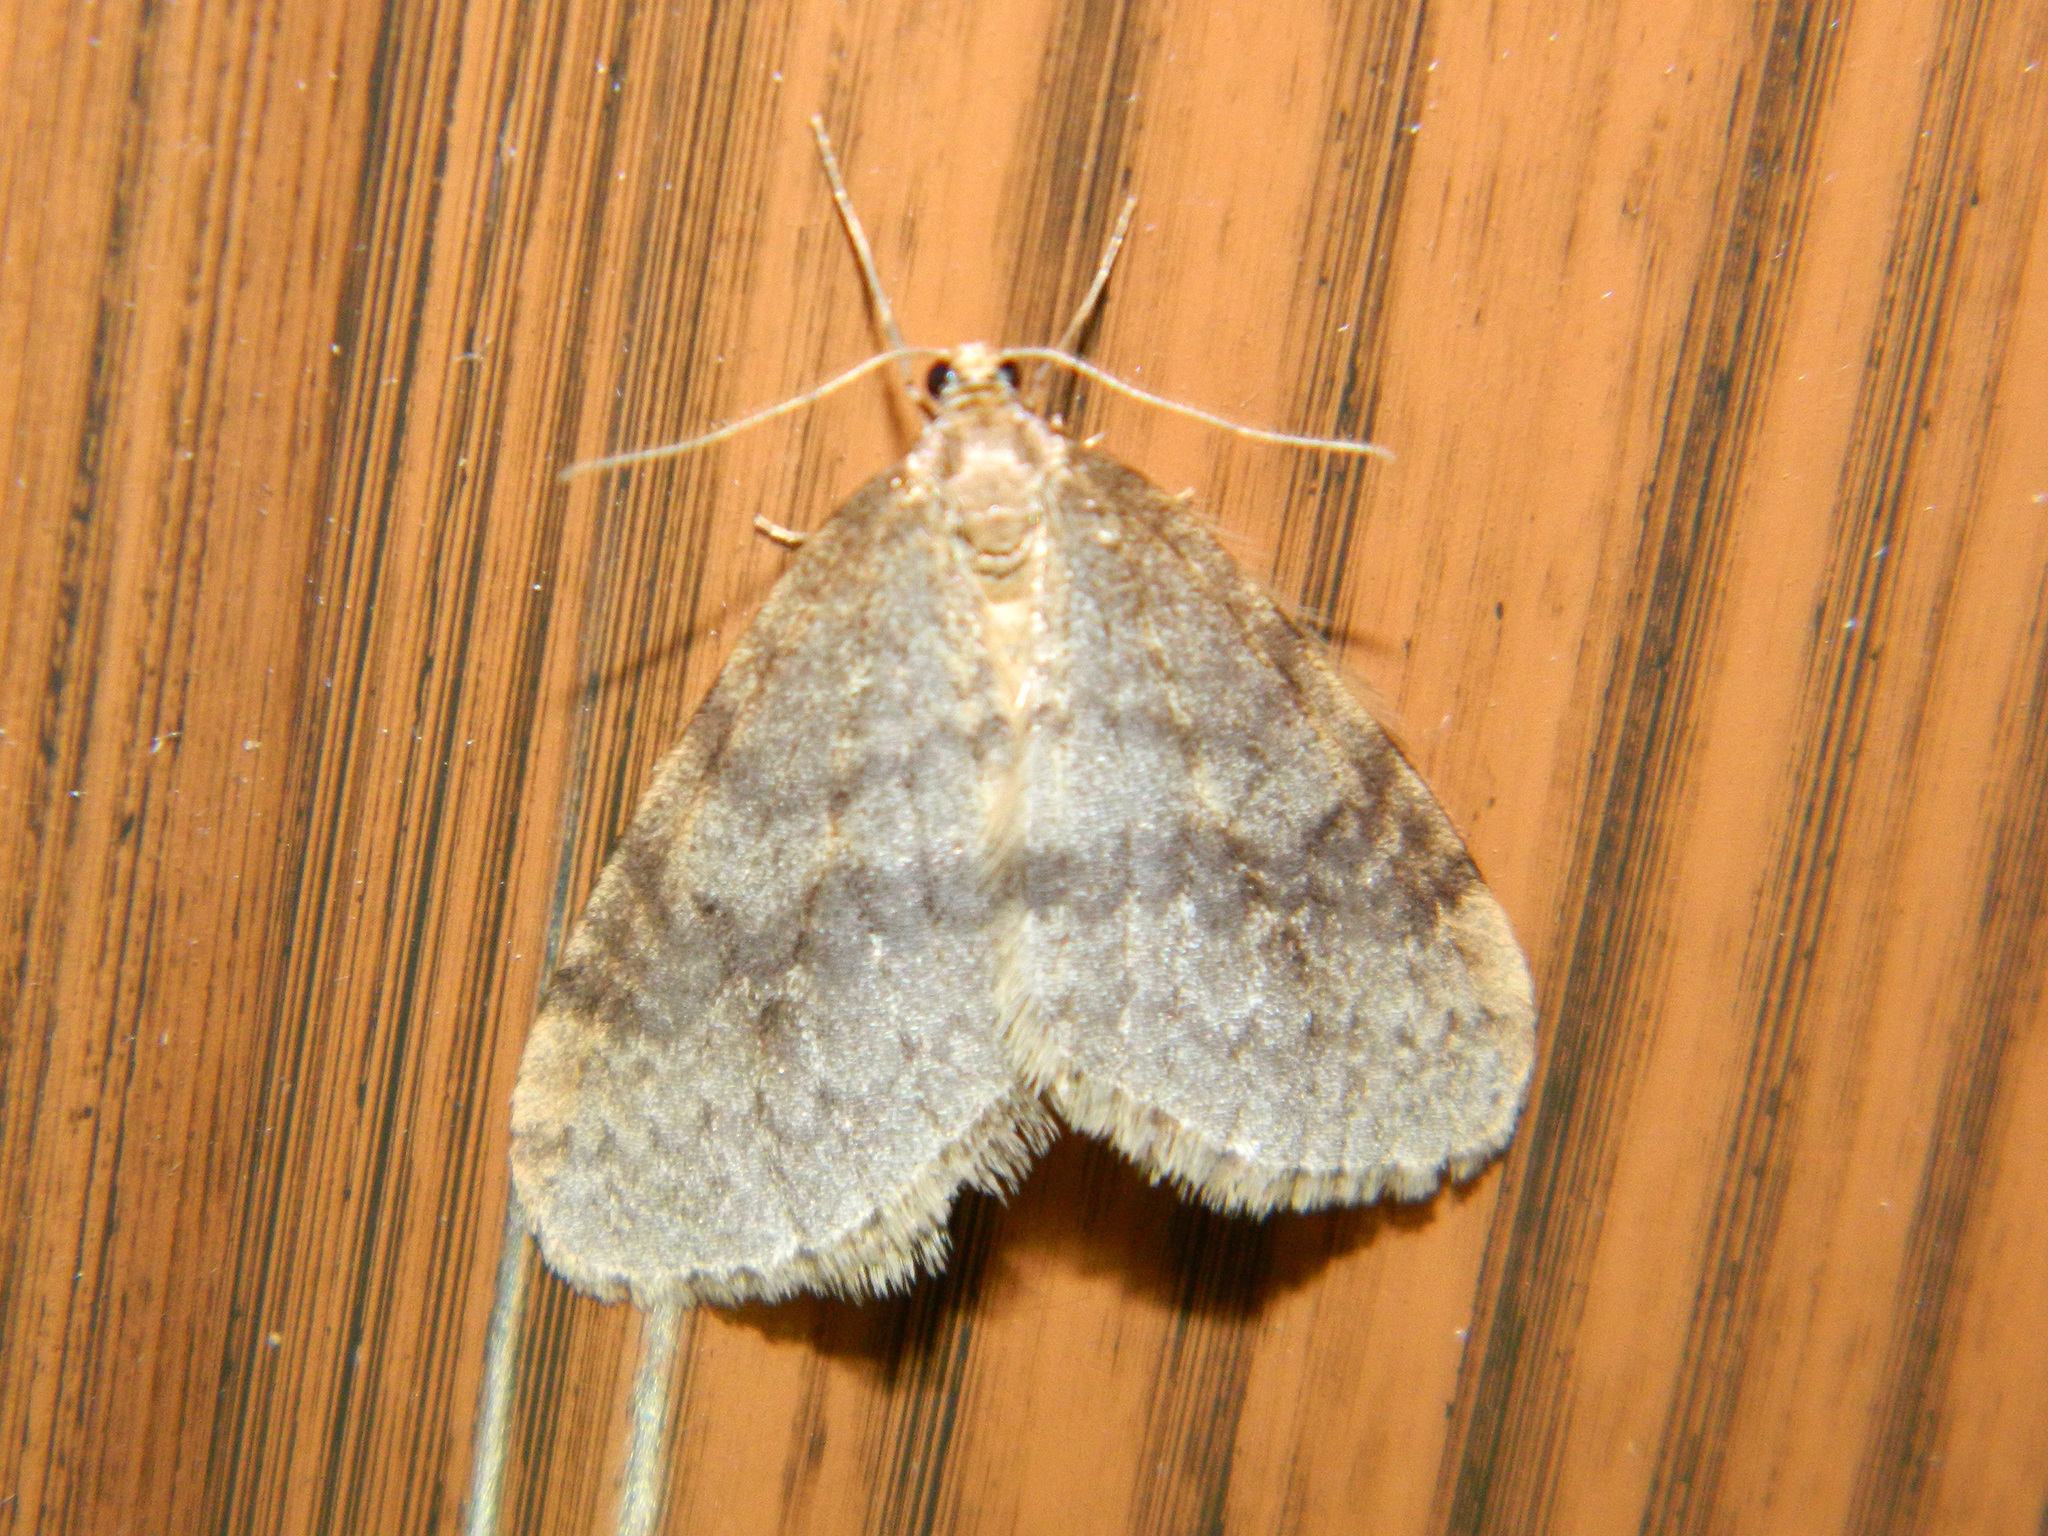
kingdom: Animalia
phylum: Arthropoda
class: Insecta
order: Lepidoptera
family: Geometridae
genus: Operophtera
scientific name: Operophtera bruceata
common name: Bruce spanworm
